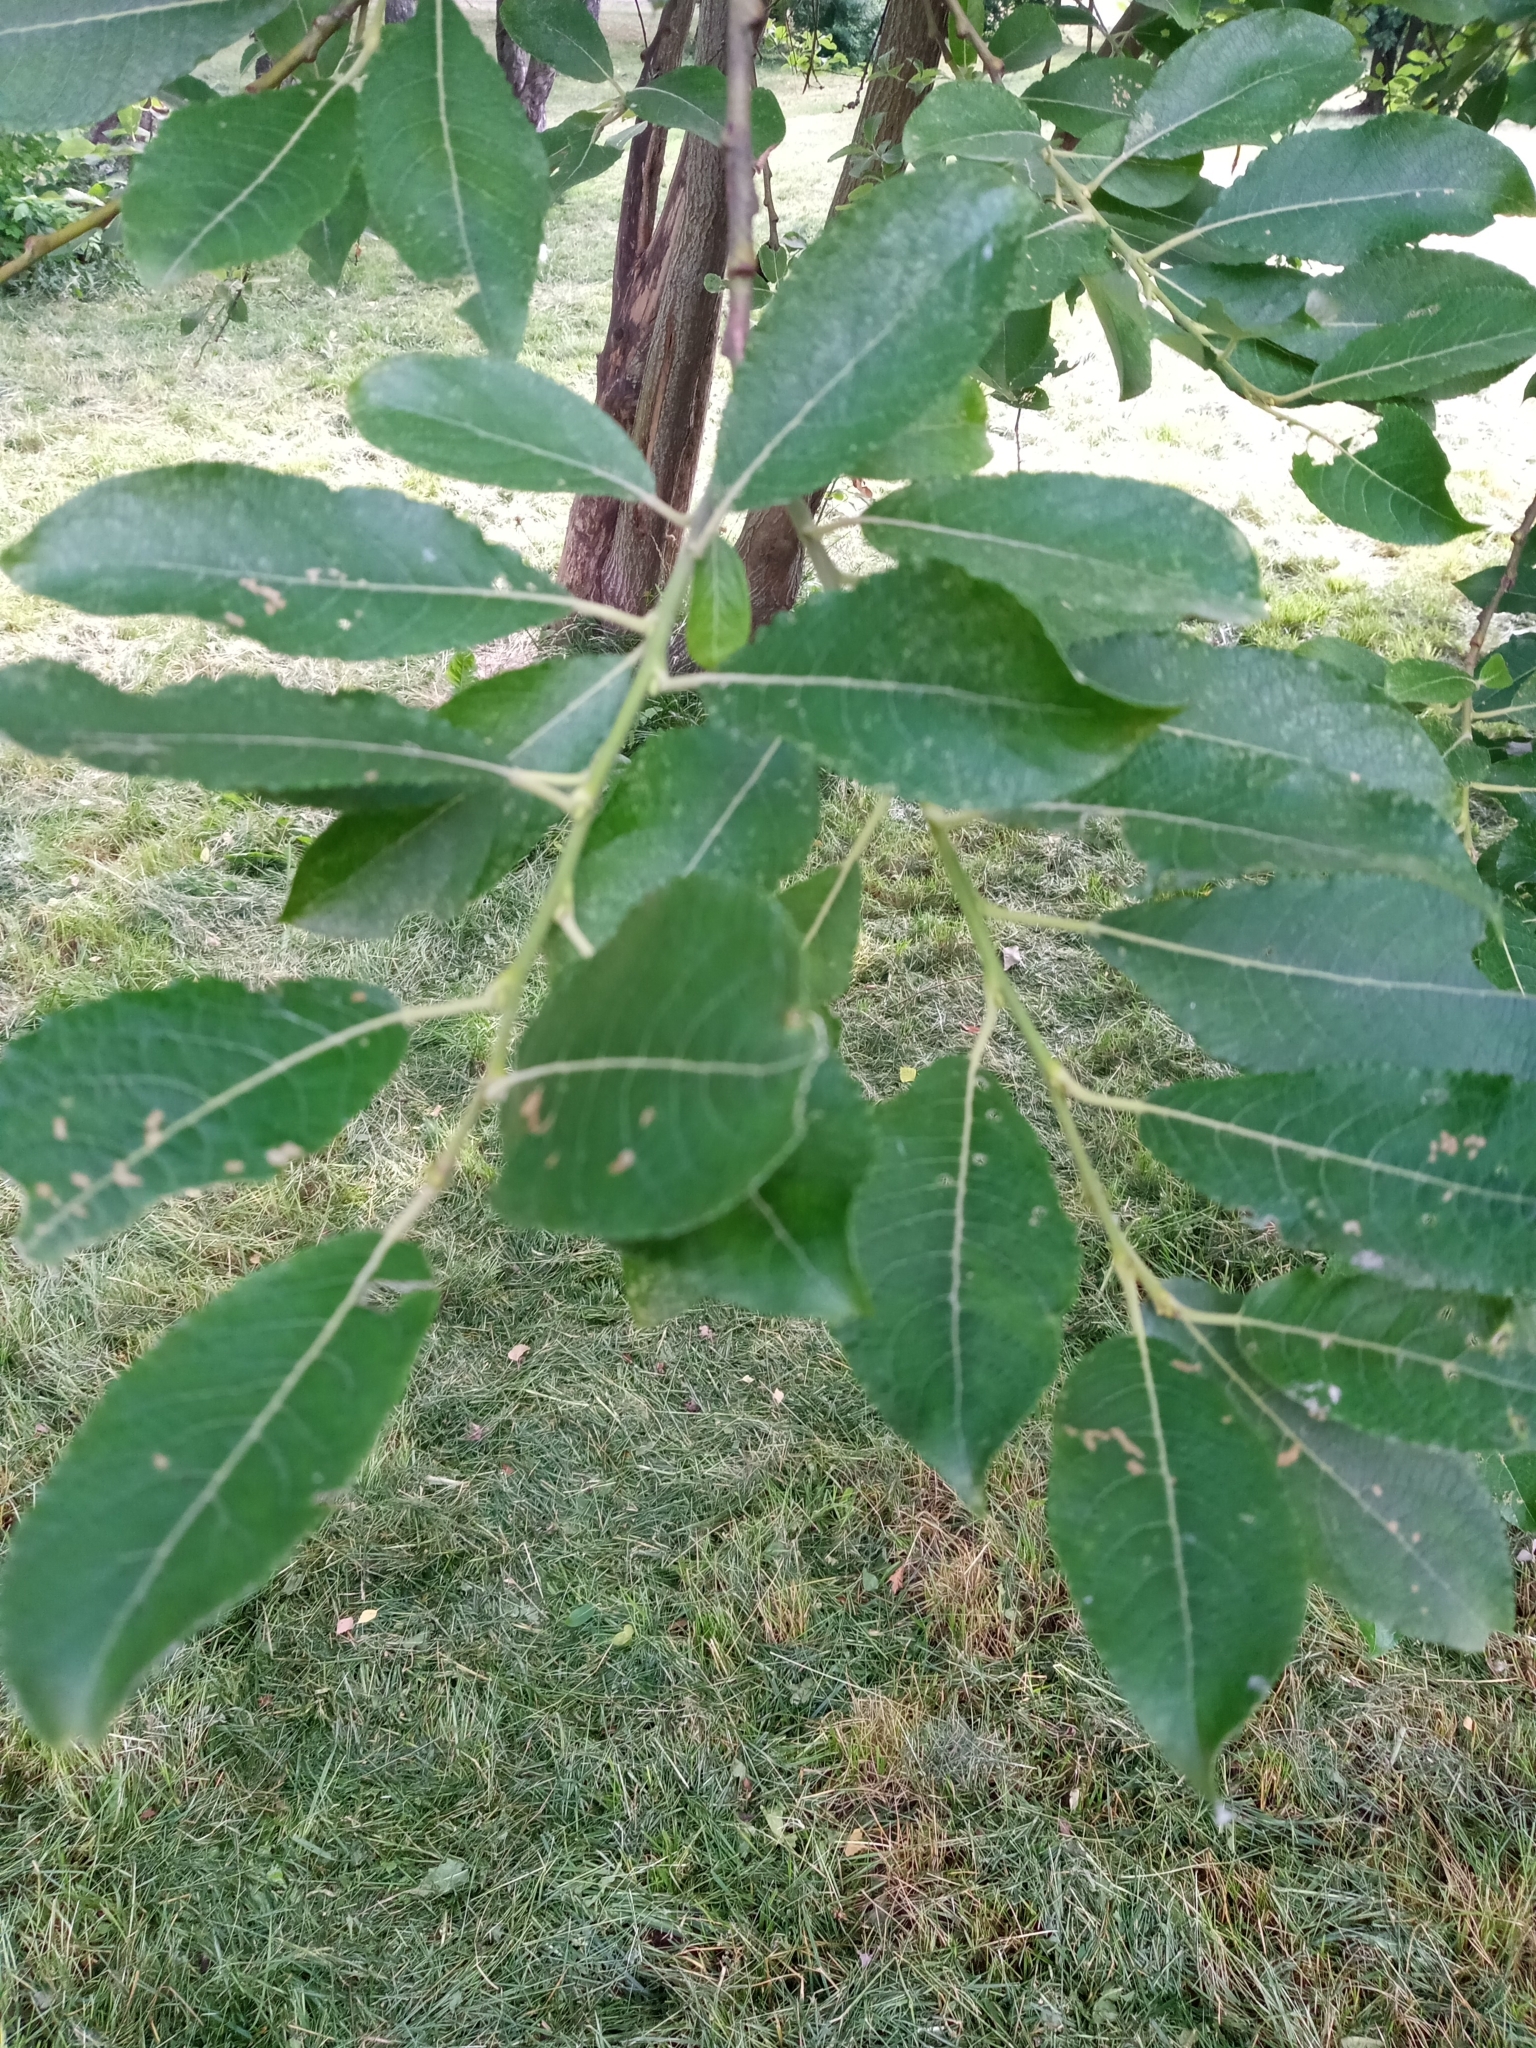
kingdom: Animalia
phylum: Arthropoda
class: Arachnida
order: Trombidiformes
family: Eriophyidae
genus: Stenacis
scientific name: Stenacis triradiatus
